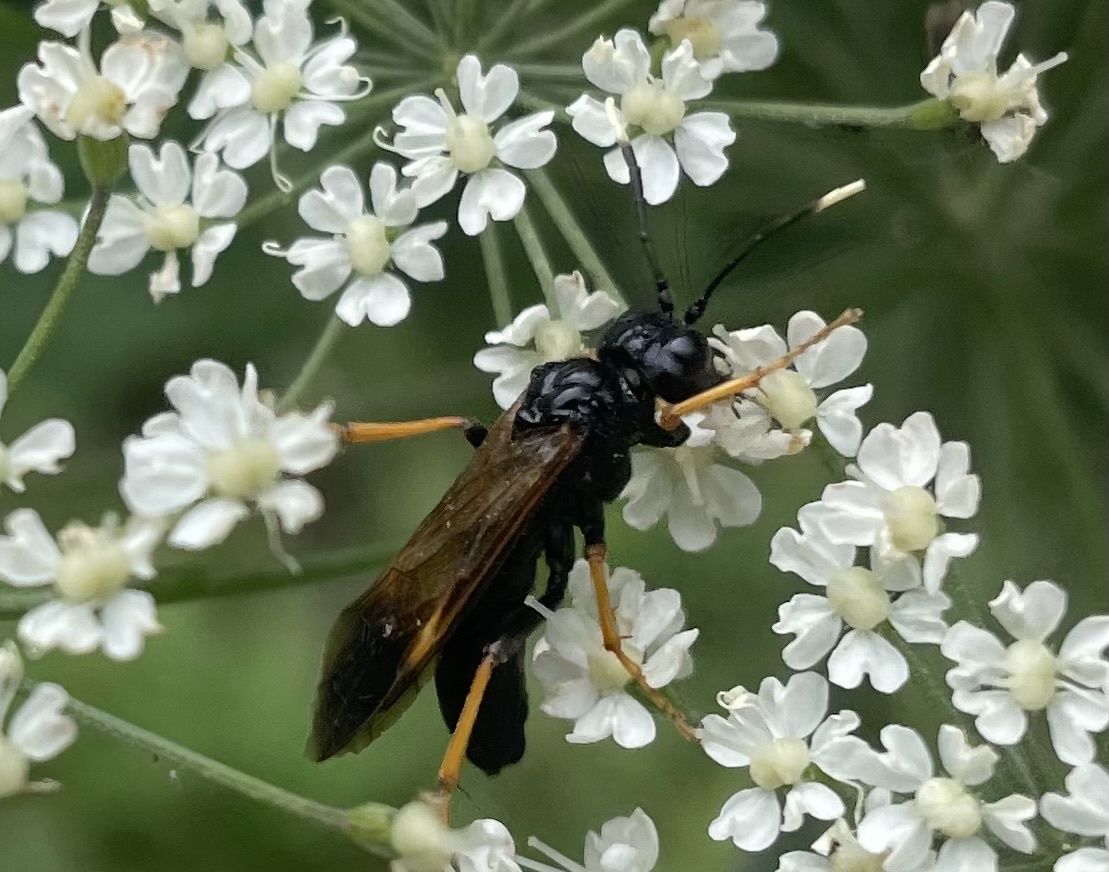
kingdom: Animalia
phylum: Arthropoda
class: Insecta
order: Hymenoptera
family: Tenthredinidae
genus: Tenthredo
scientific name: Tenthredo crassa
